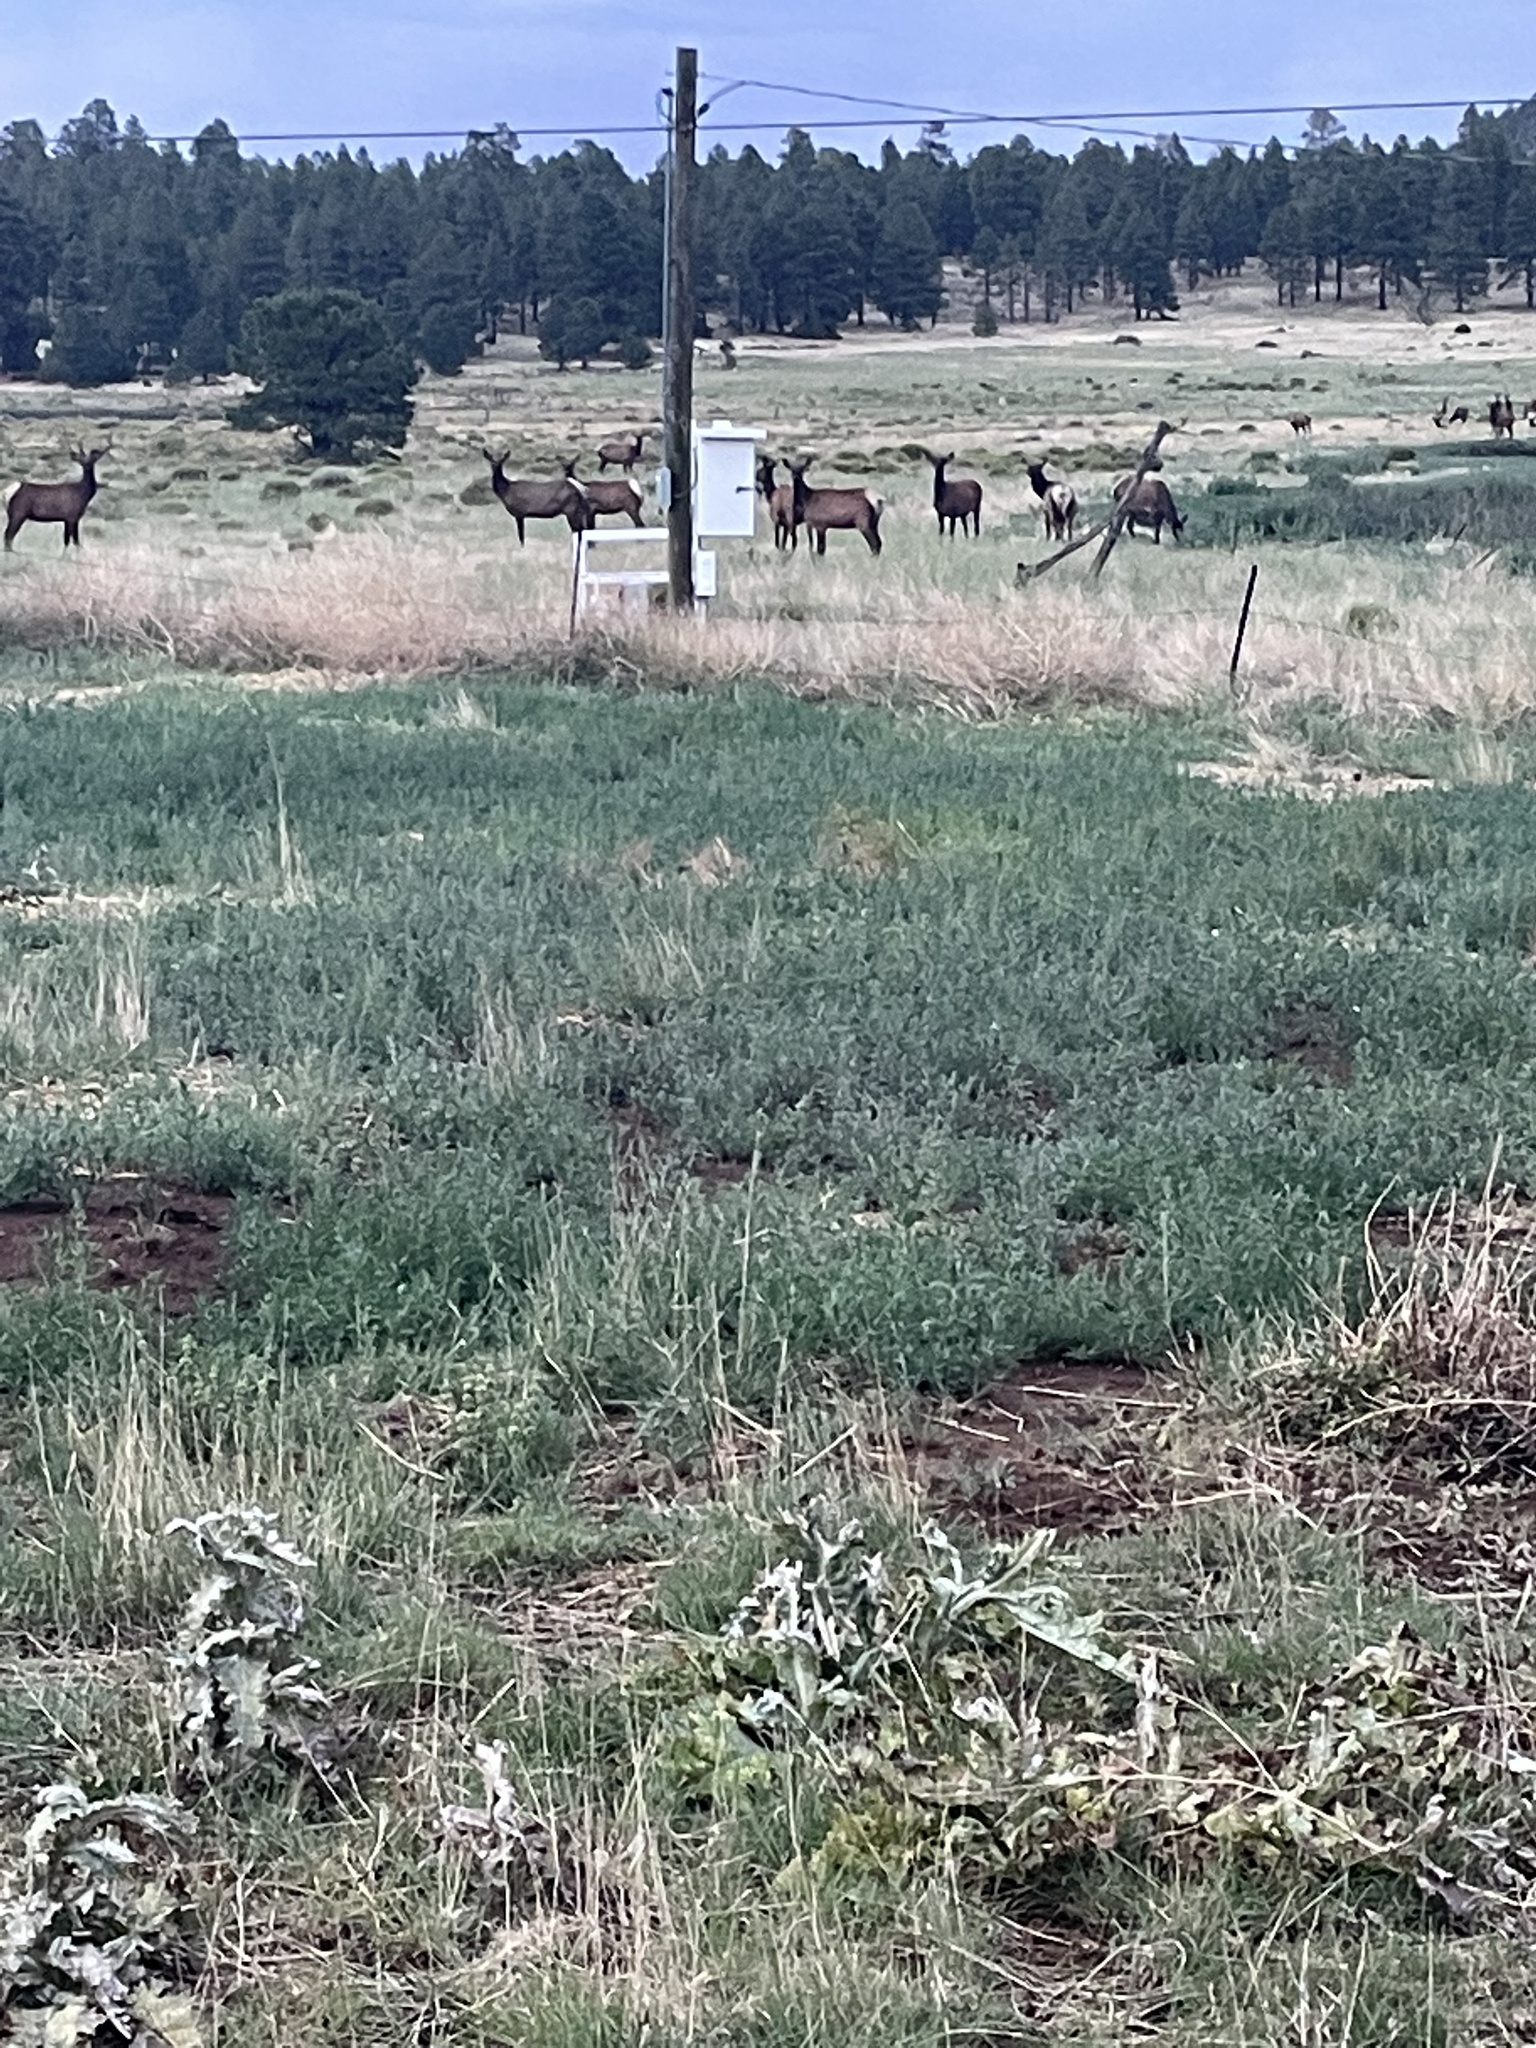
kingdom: Animalia
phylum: Chordata
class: Mammalia
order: Artiodactyla
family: Cervidae
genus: Cervus
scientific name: Cervus elaphus
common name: Red deer
